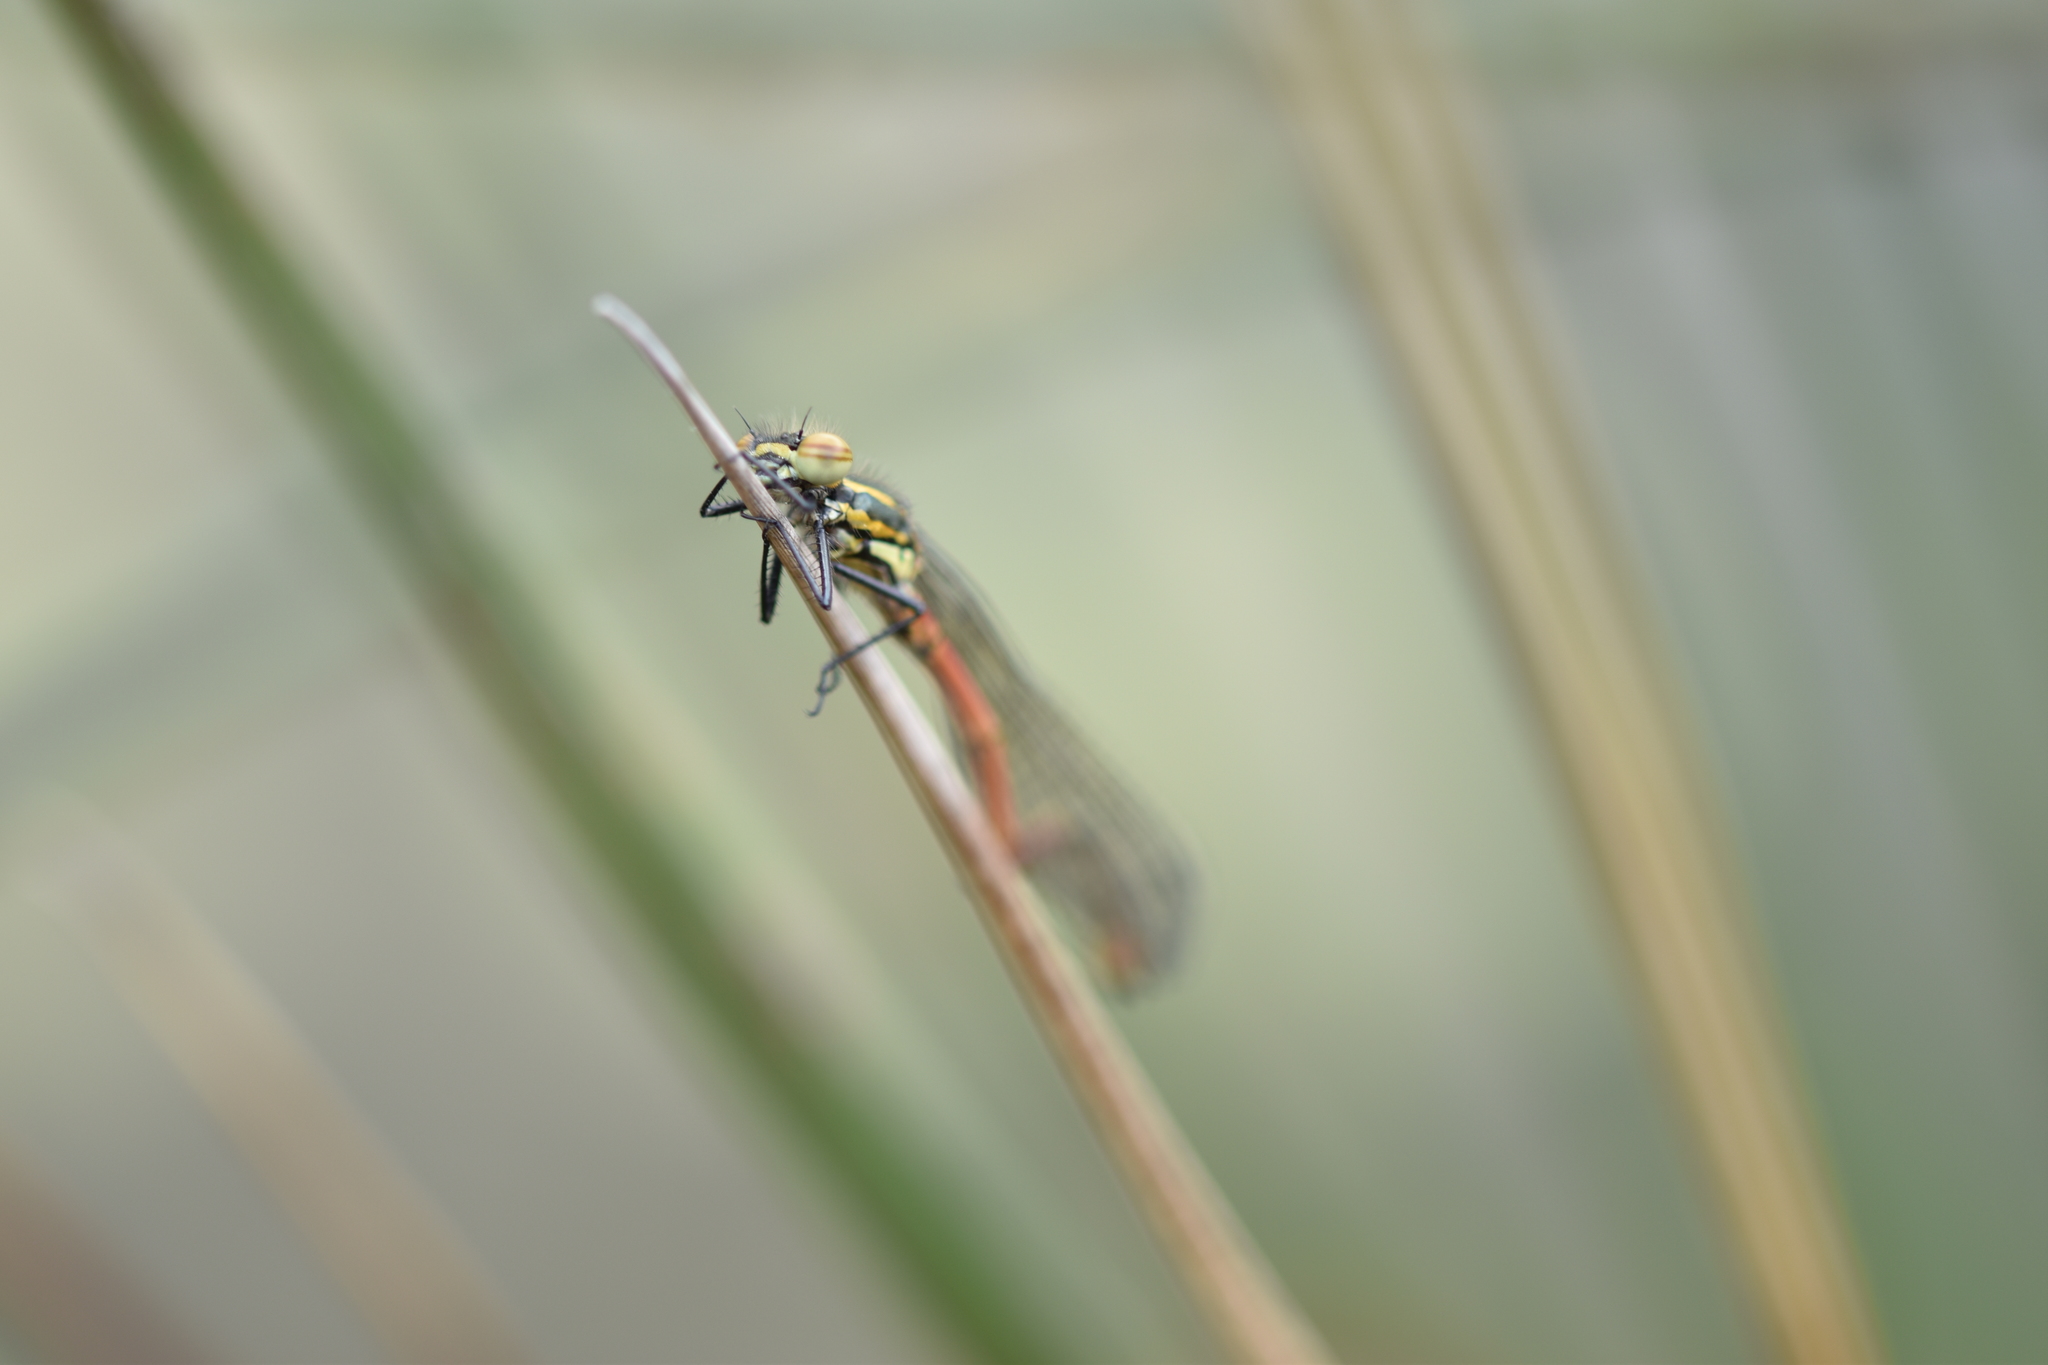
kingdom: Animalia
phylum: Arthropoda
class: Insecta
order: Odonata
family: Coenagrionidae
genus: Pyrrhosoma
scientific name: Pyrrhosoma nymphula
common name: Large red damsel
